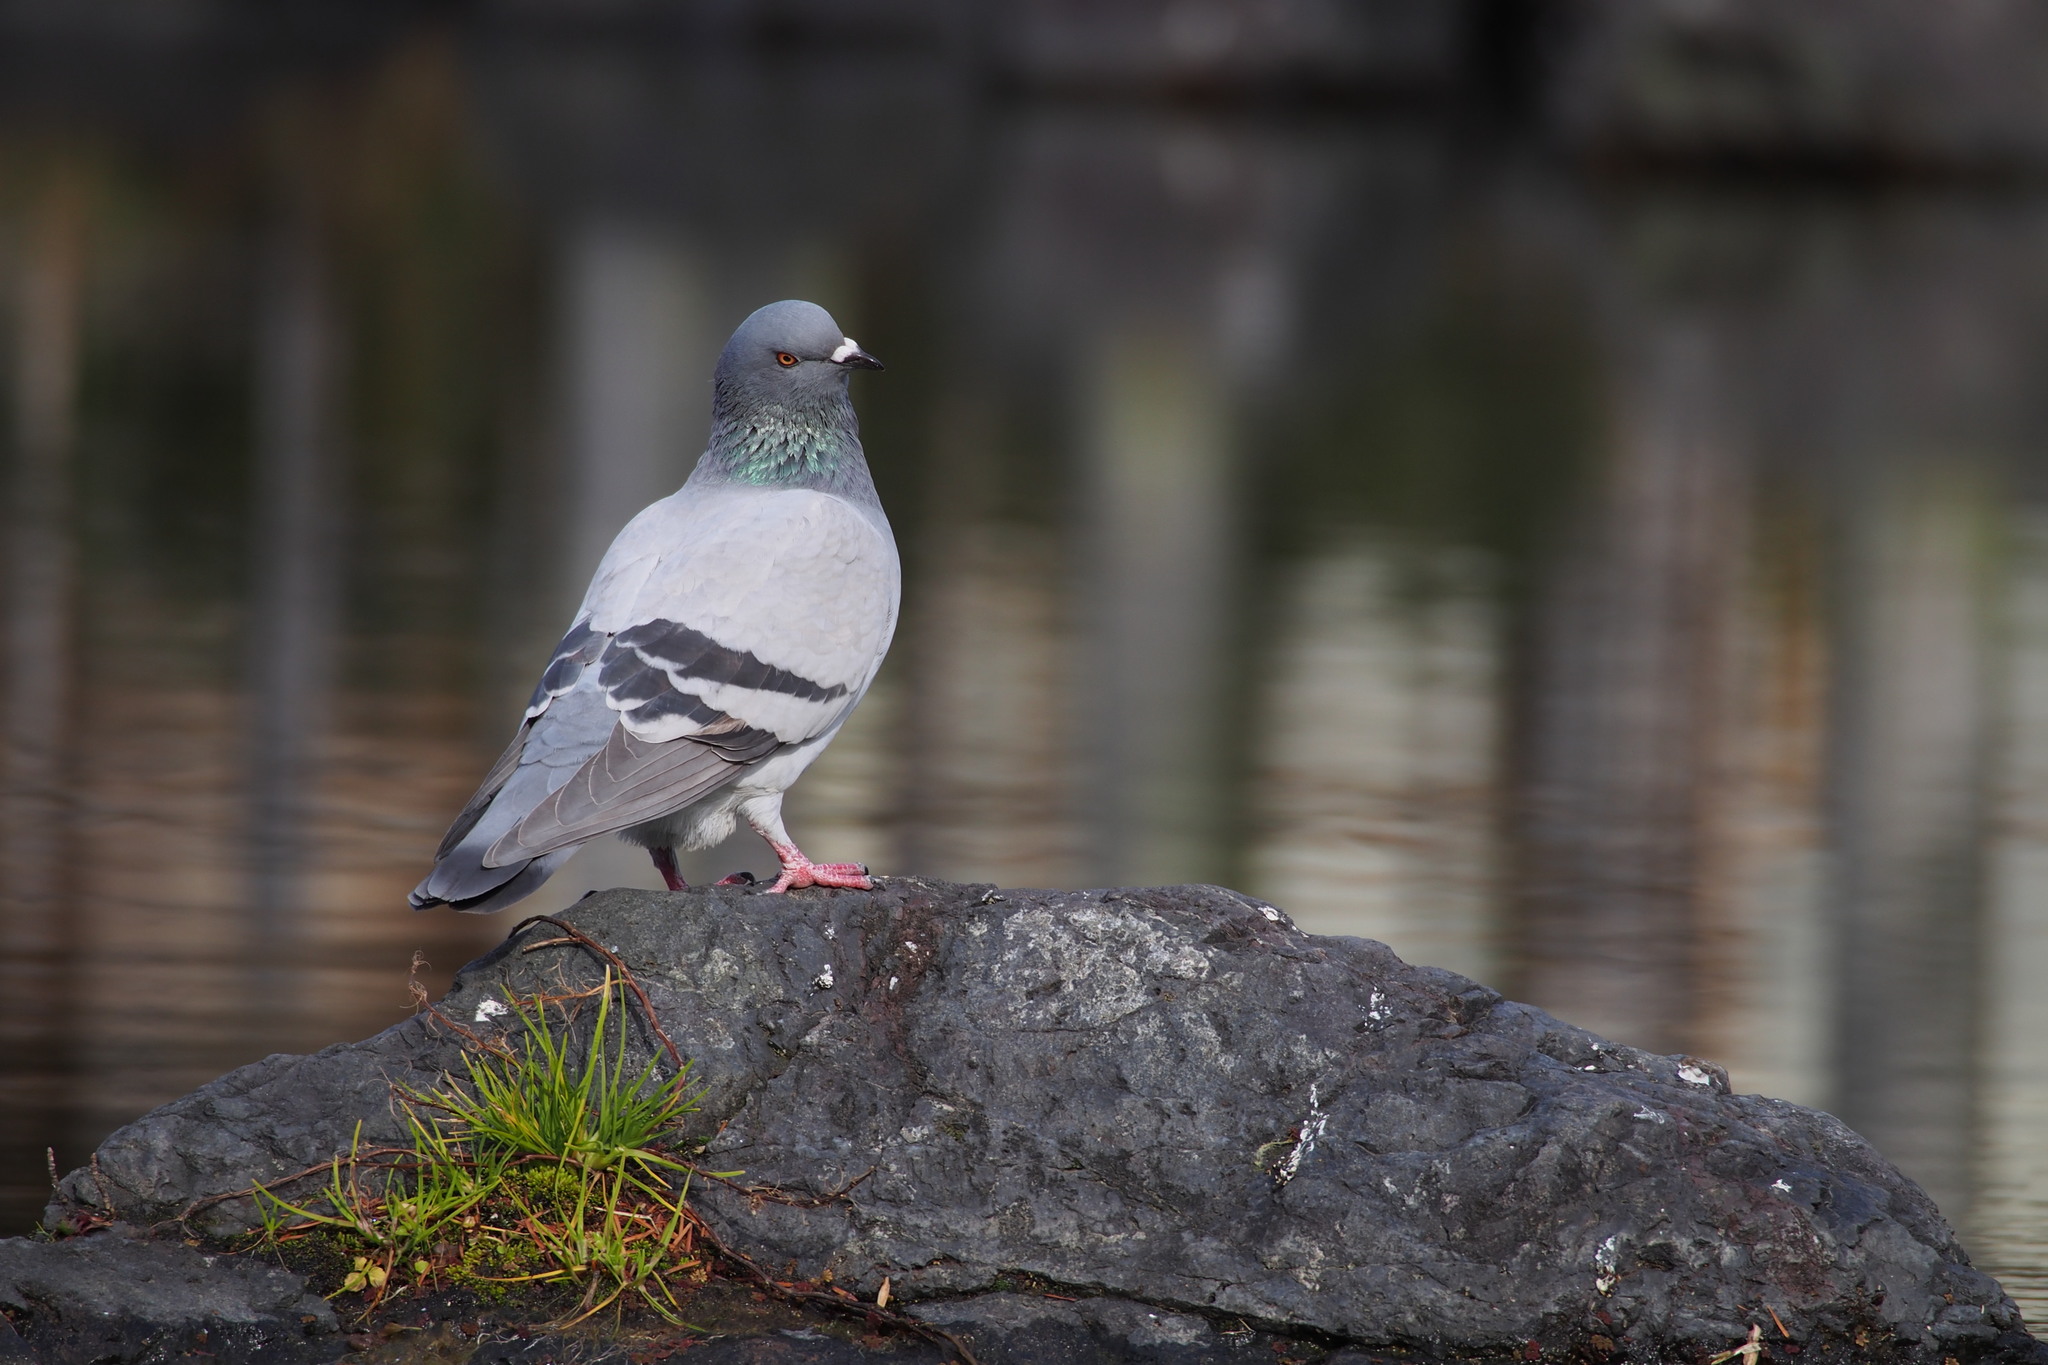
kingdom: Animalia
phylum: Chordata
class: Aves
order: Columbiformes
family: Columbidae
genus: Columba
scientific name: Columba livia
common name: Rock pigeon
